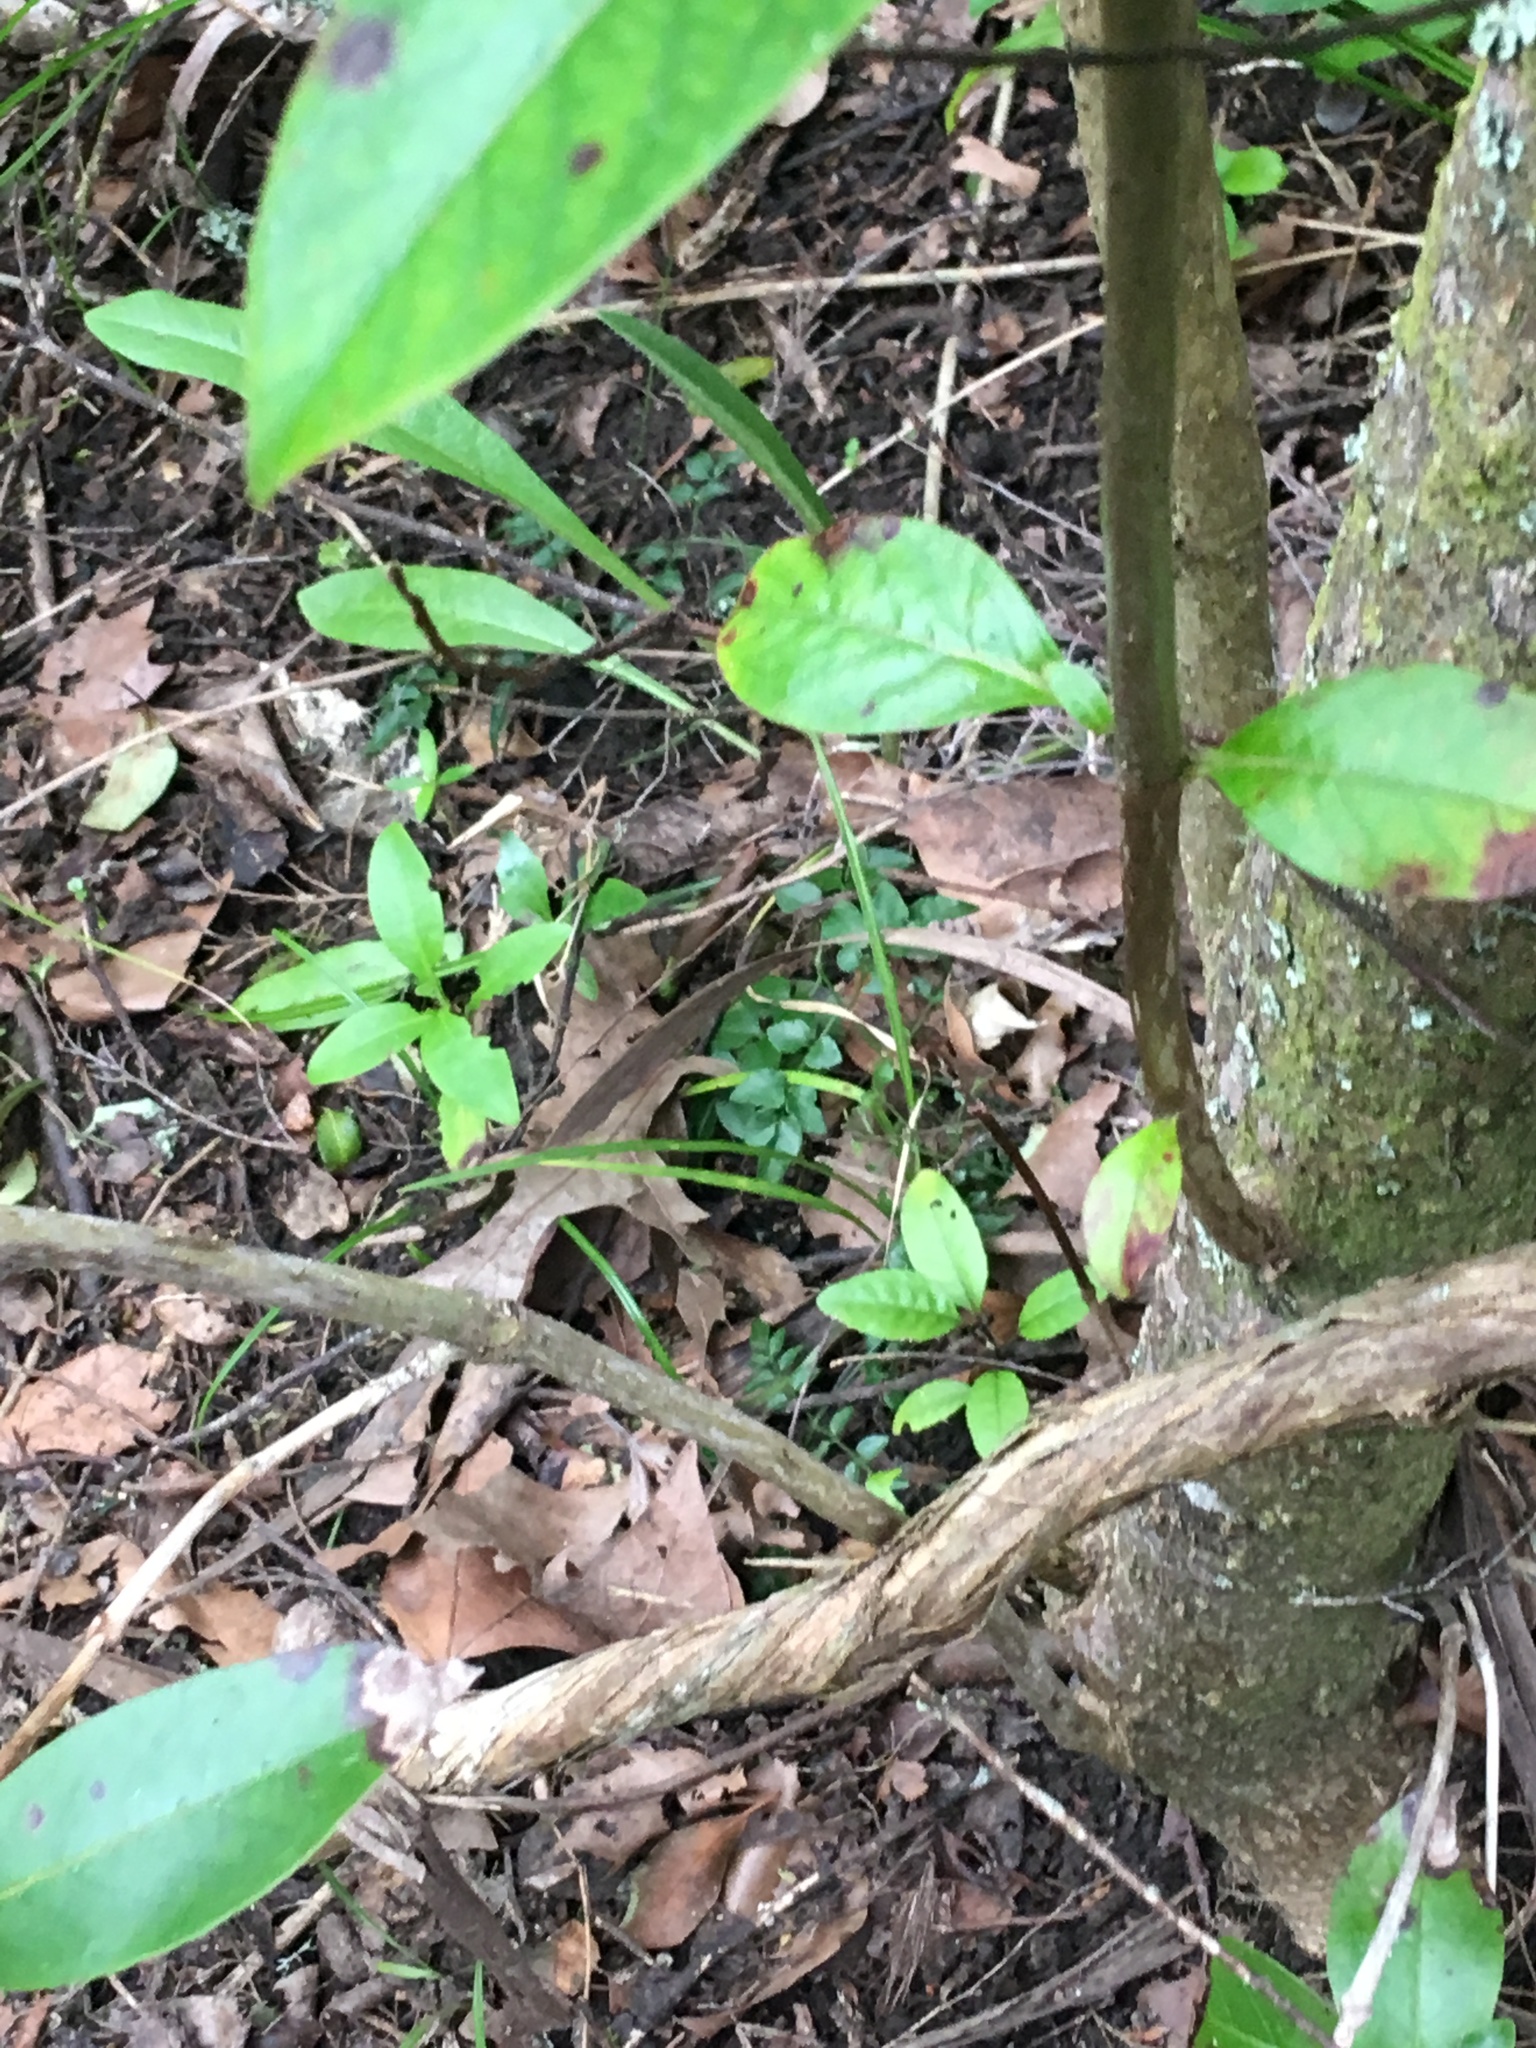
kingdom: Plantae
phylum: Tracheophyta
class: Magnoliopsida
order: Dipsacales
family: Caprifoliaceae
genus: Lonicera
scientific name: Lonicera japonica
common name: Japanese honeysuckle
